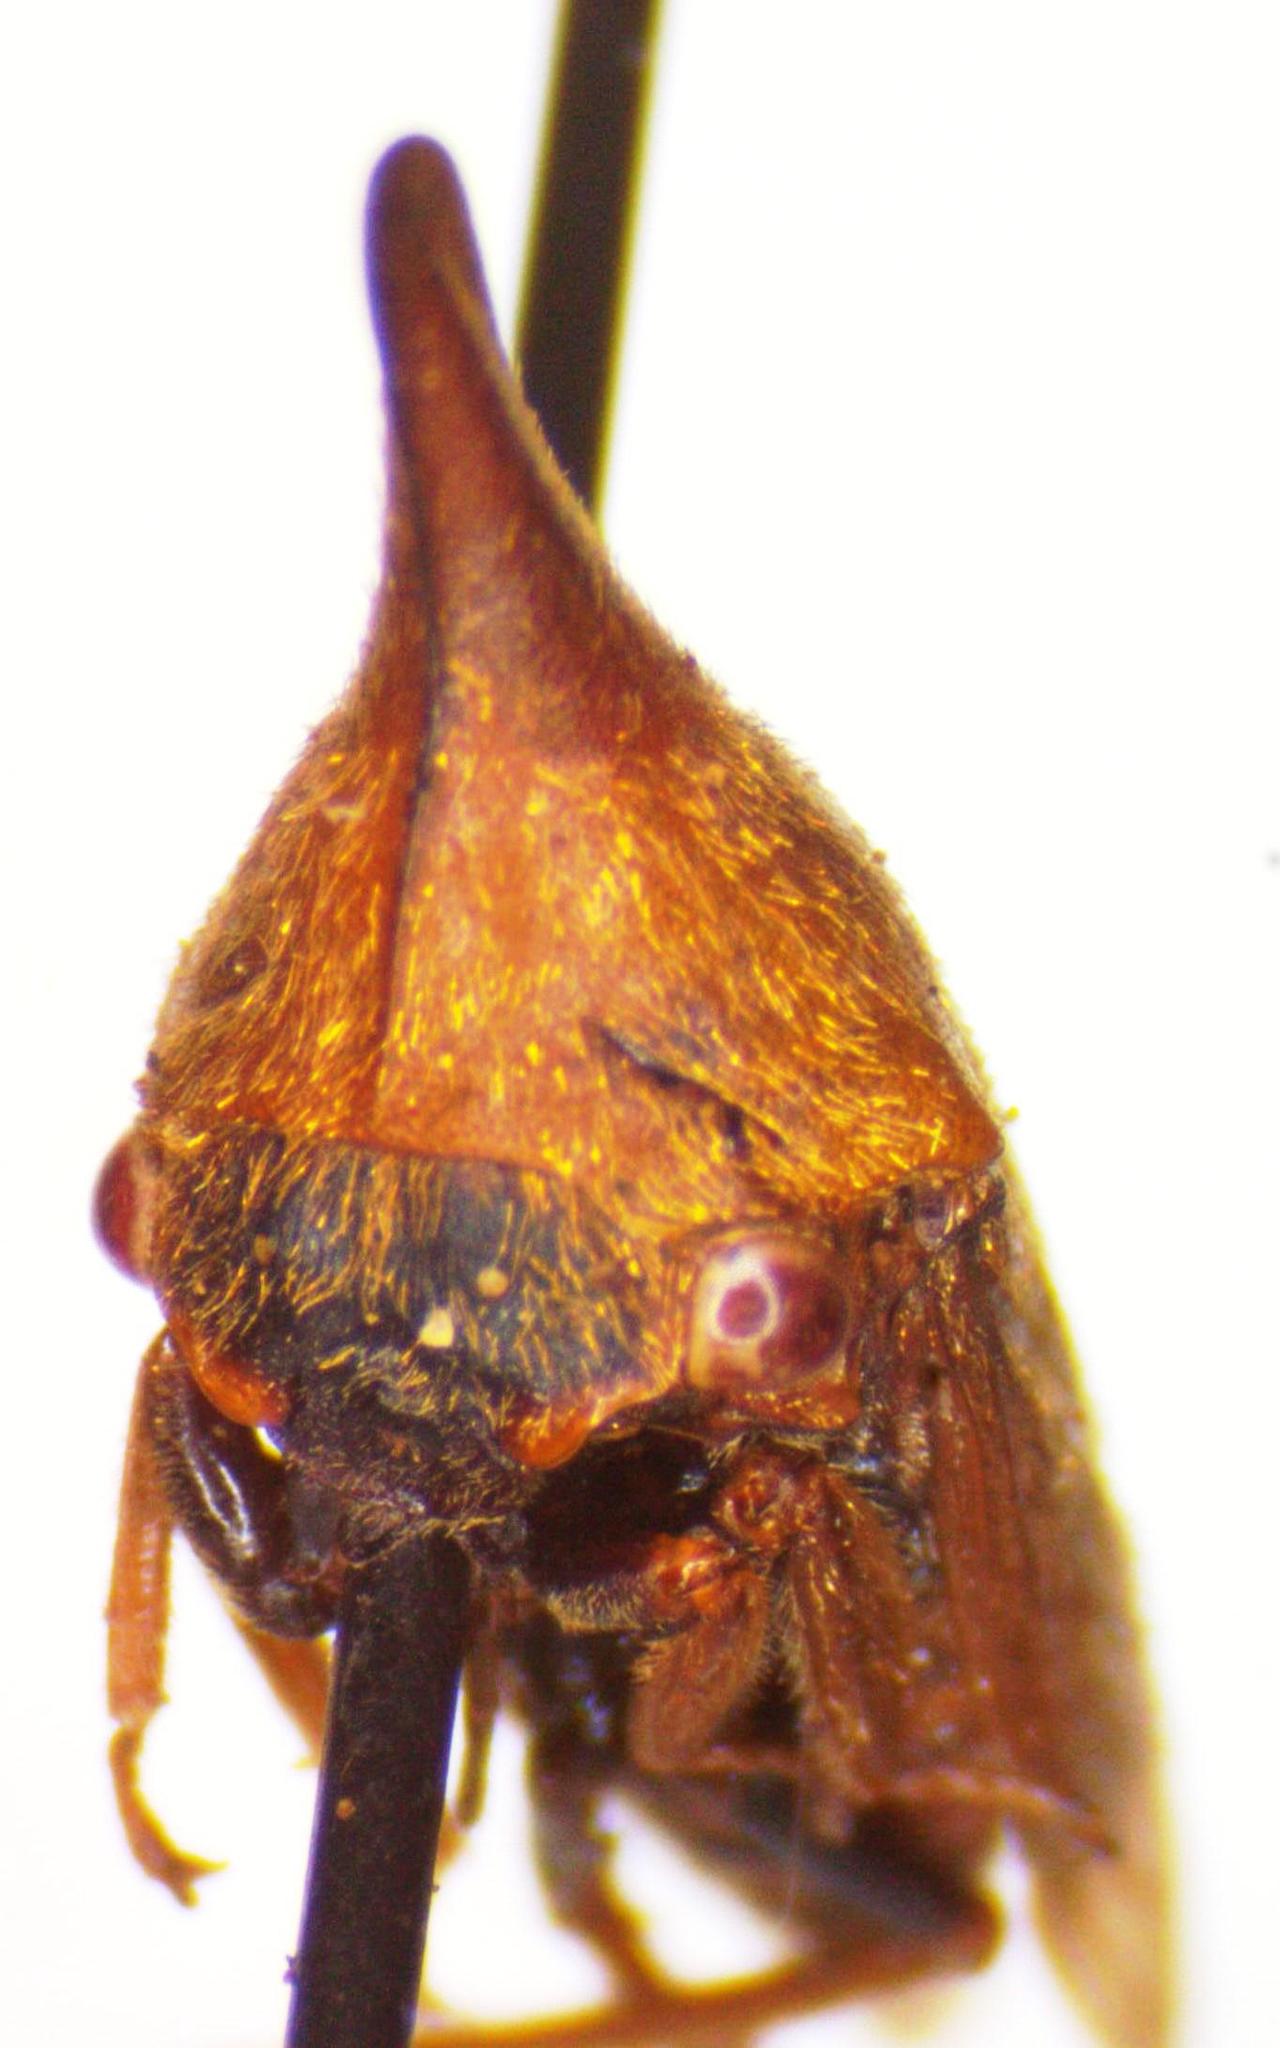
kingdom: Animalia
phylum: Arthropoda
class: Insecta
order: Hemiptera
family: Membracidae
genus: Guayaquila
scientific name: Guayaquila emarginata
